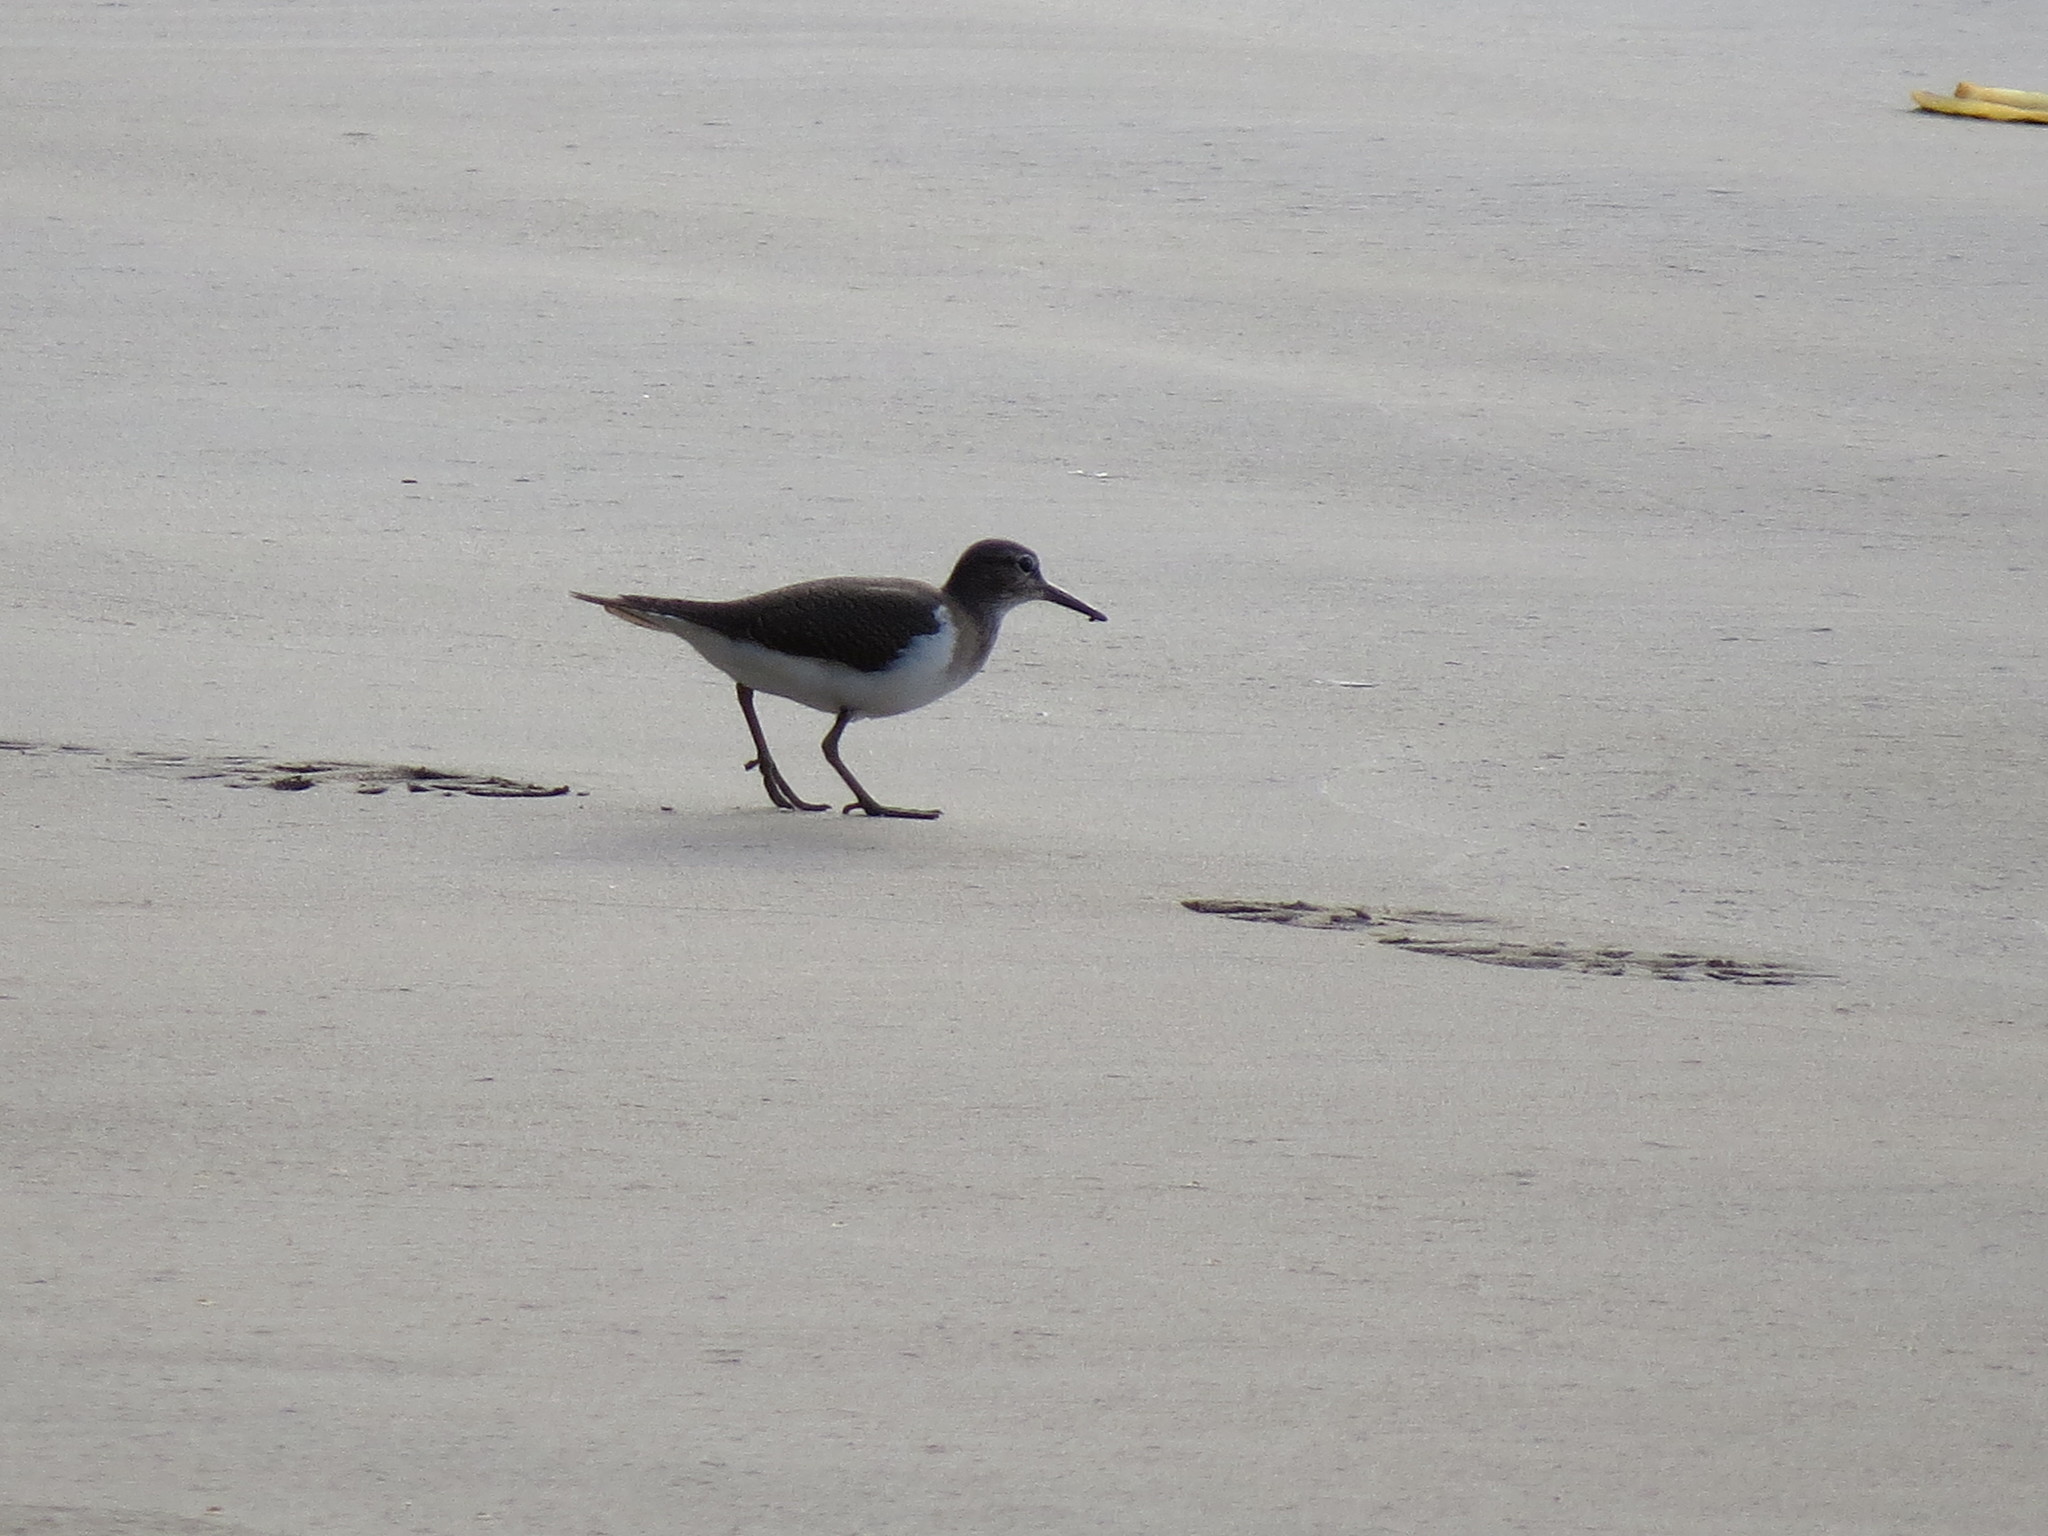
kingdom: Animalia
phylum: Chordata
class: Aves
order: Charadriiformes
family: Scolopacidae
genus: Actitis
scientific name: Actitis hypoleucos
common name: Common sandpiper
